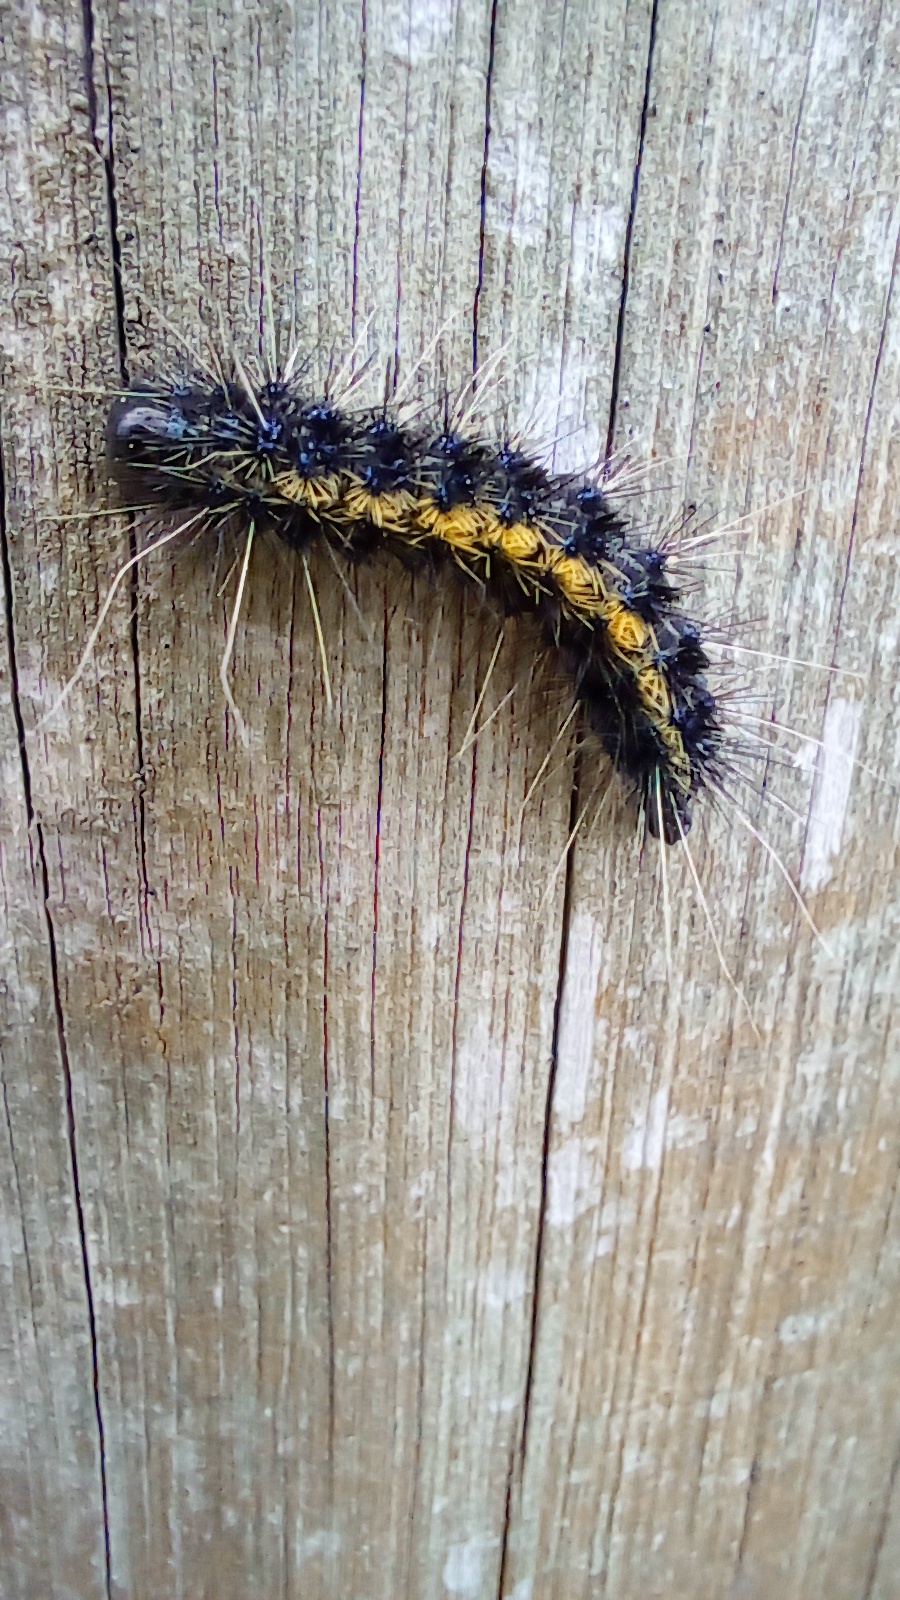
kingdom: Animalia
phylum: Arthropoda
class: Insecta
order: Lepidoptera
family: Erebidae
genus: Dysschema
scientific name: Dysschema centenaria
